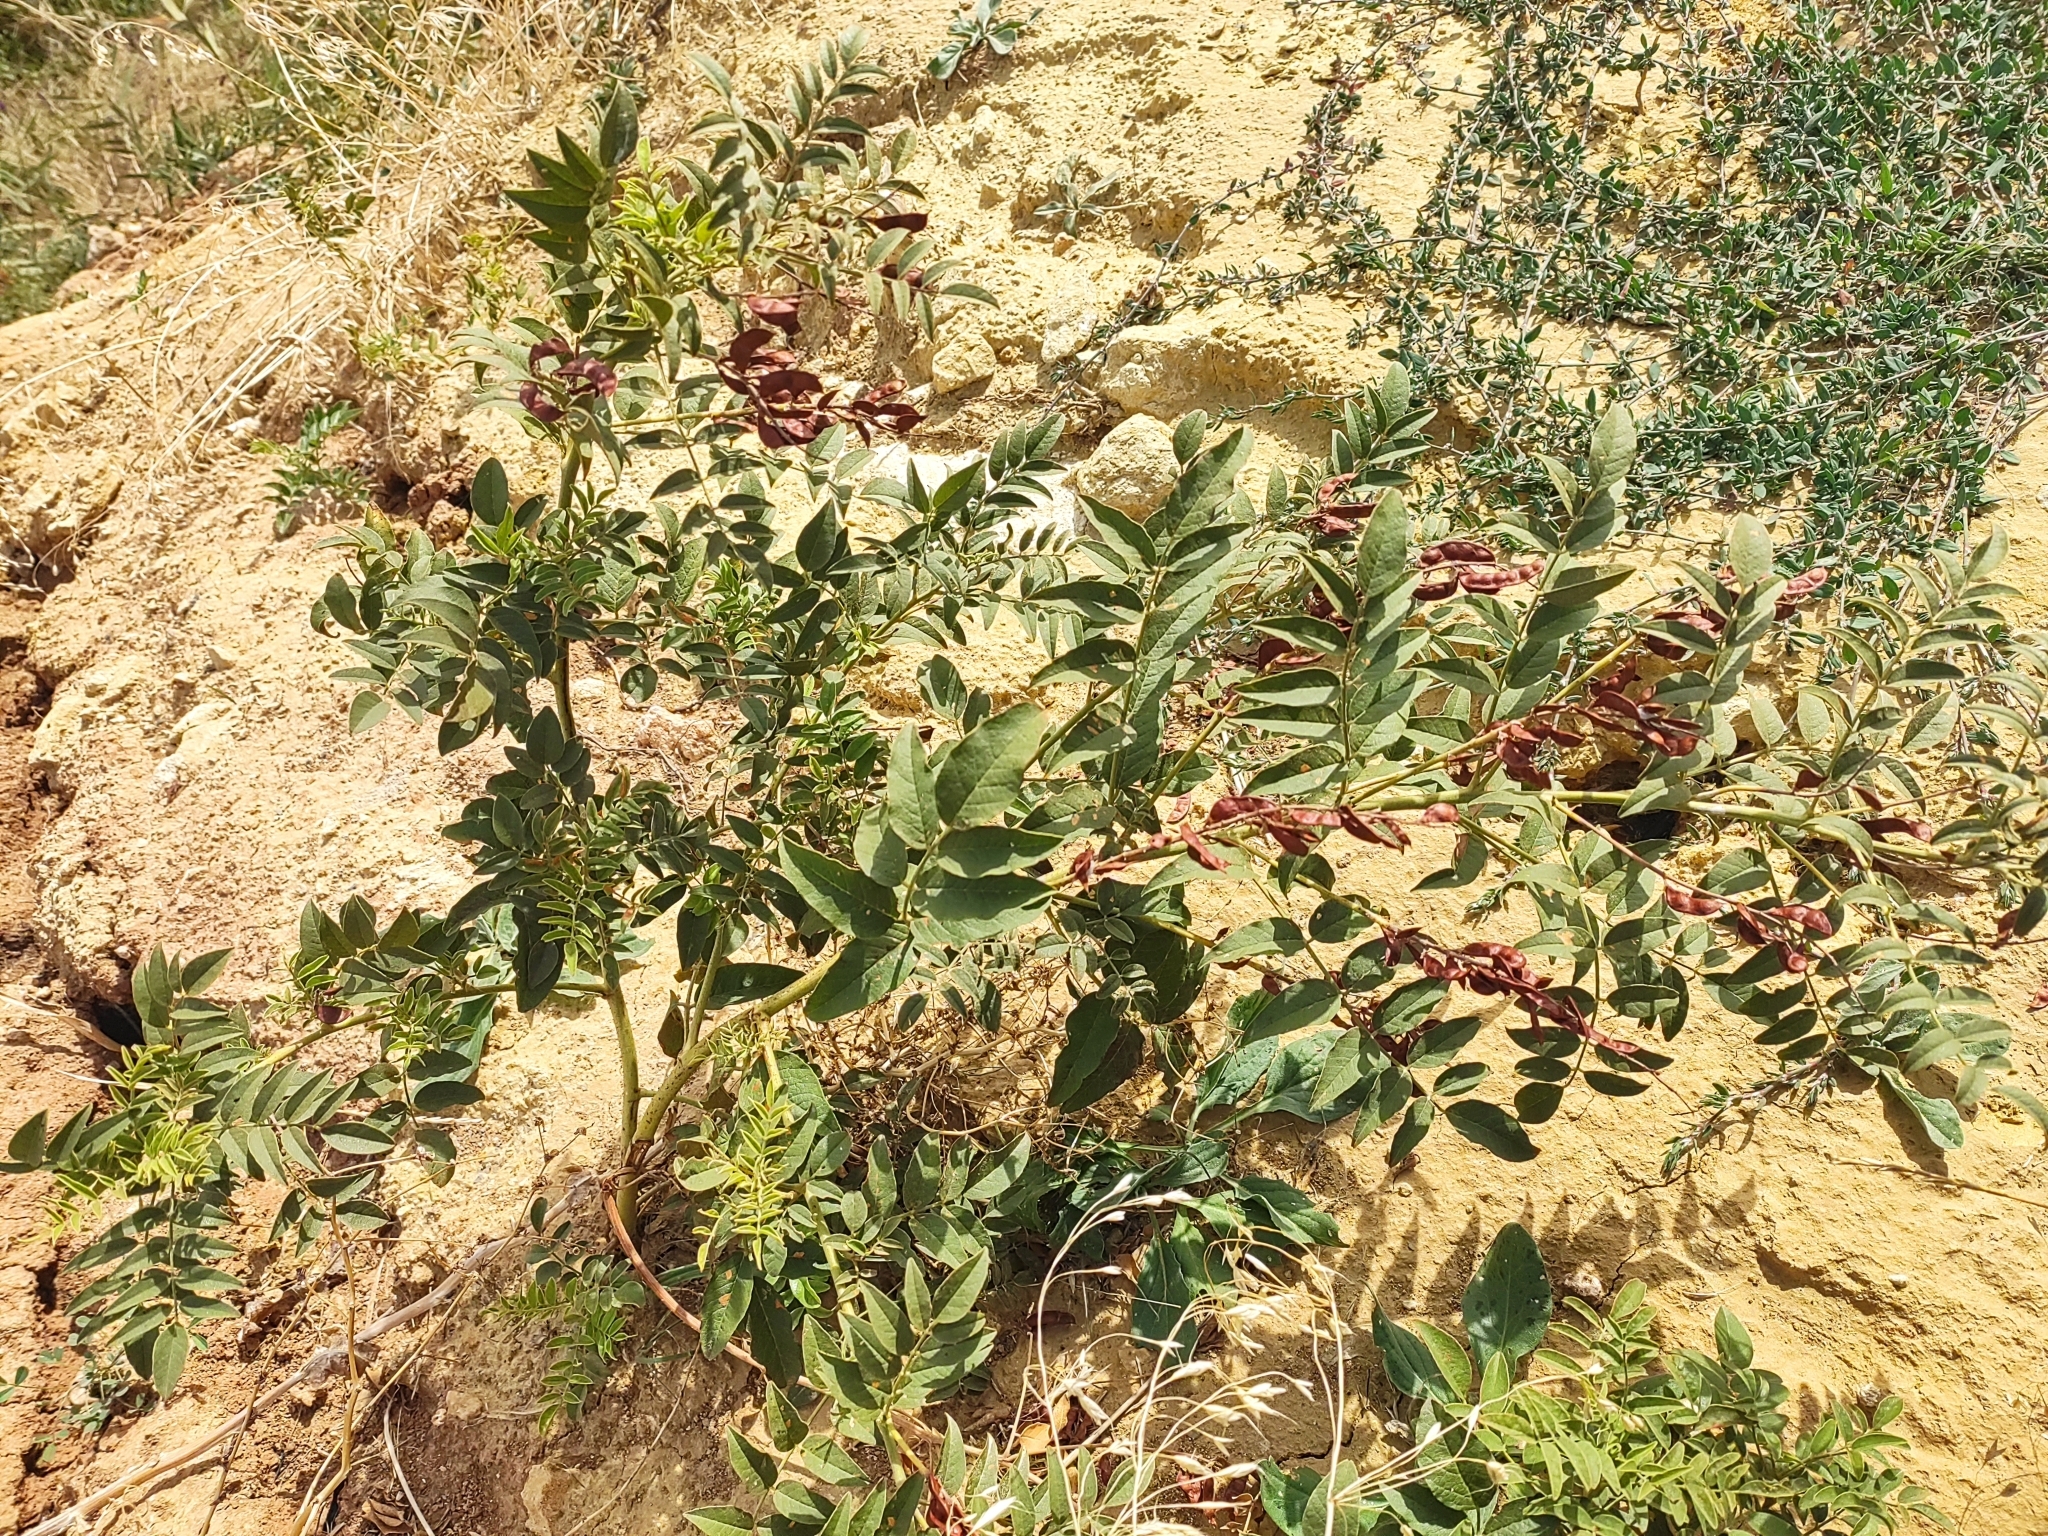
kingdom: Plantae
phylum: Tracheophyta
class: Magnoliopsida
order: Fabales
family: Fabaceae
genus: Glycyrrhiza
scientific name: Glycyrrhiza glabra
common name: Liquorice
